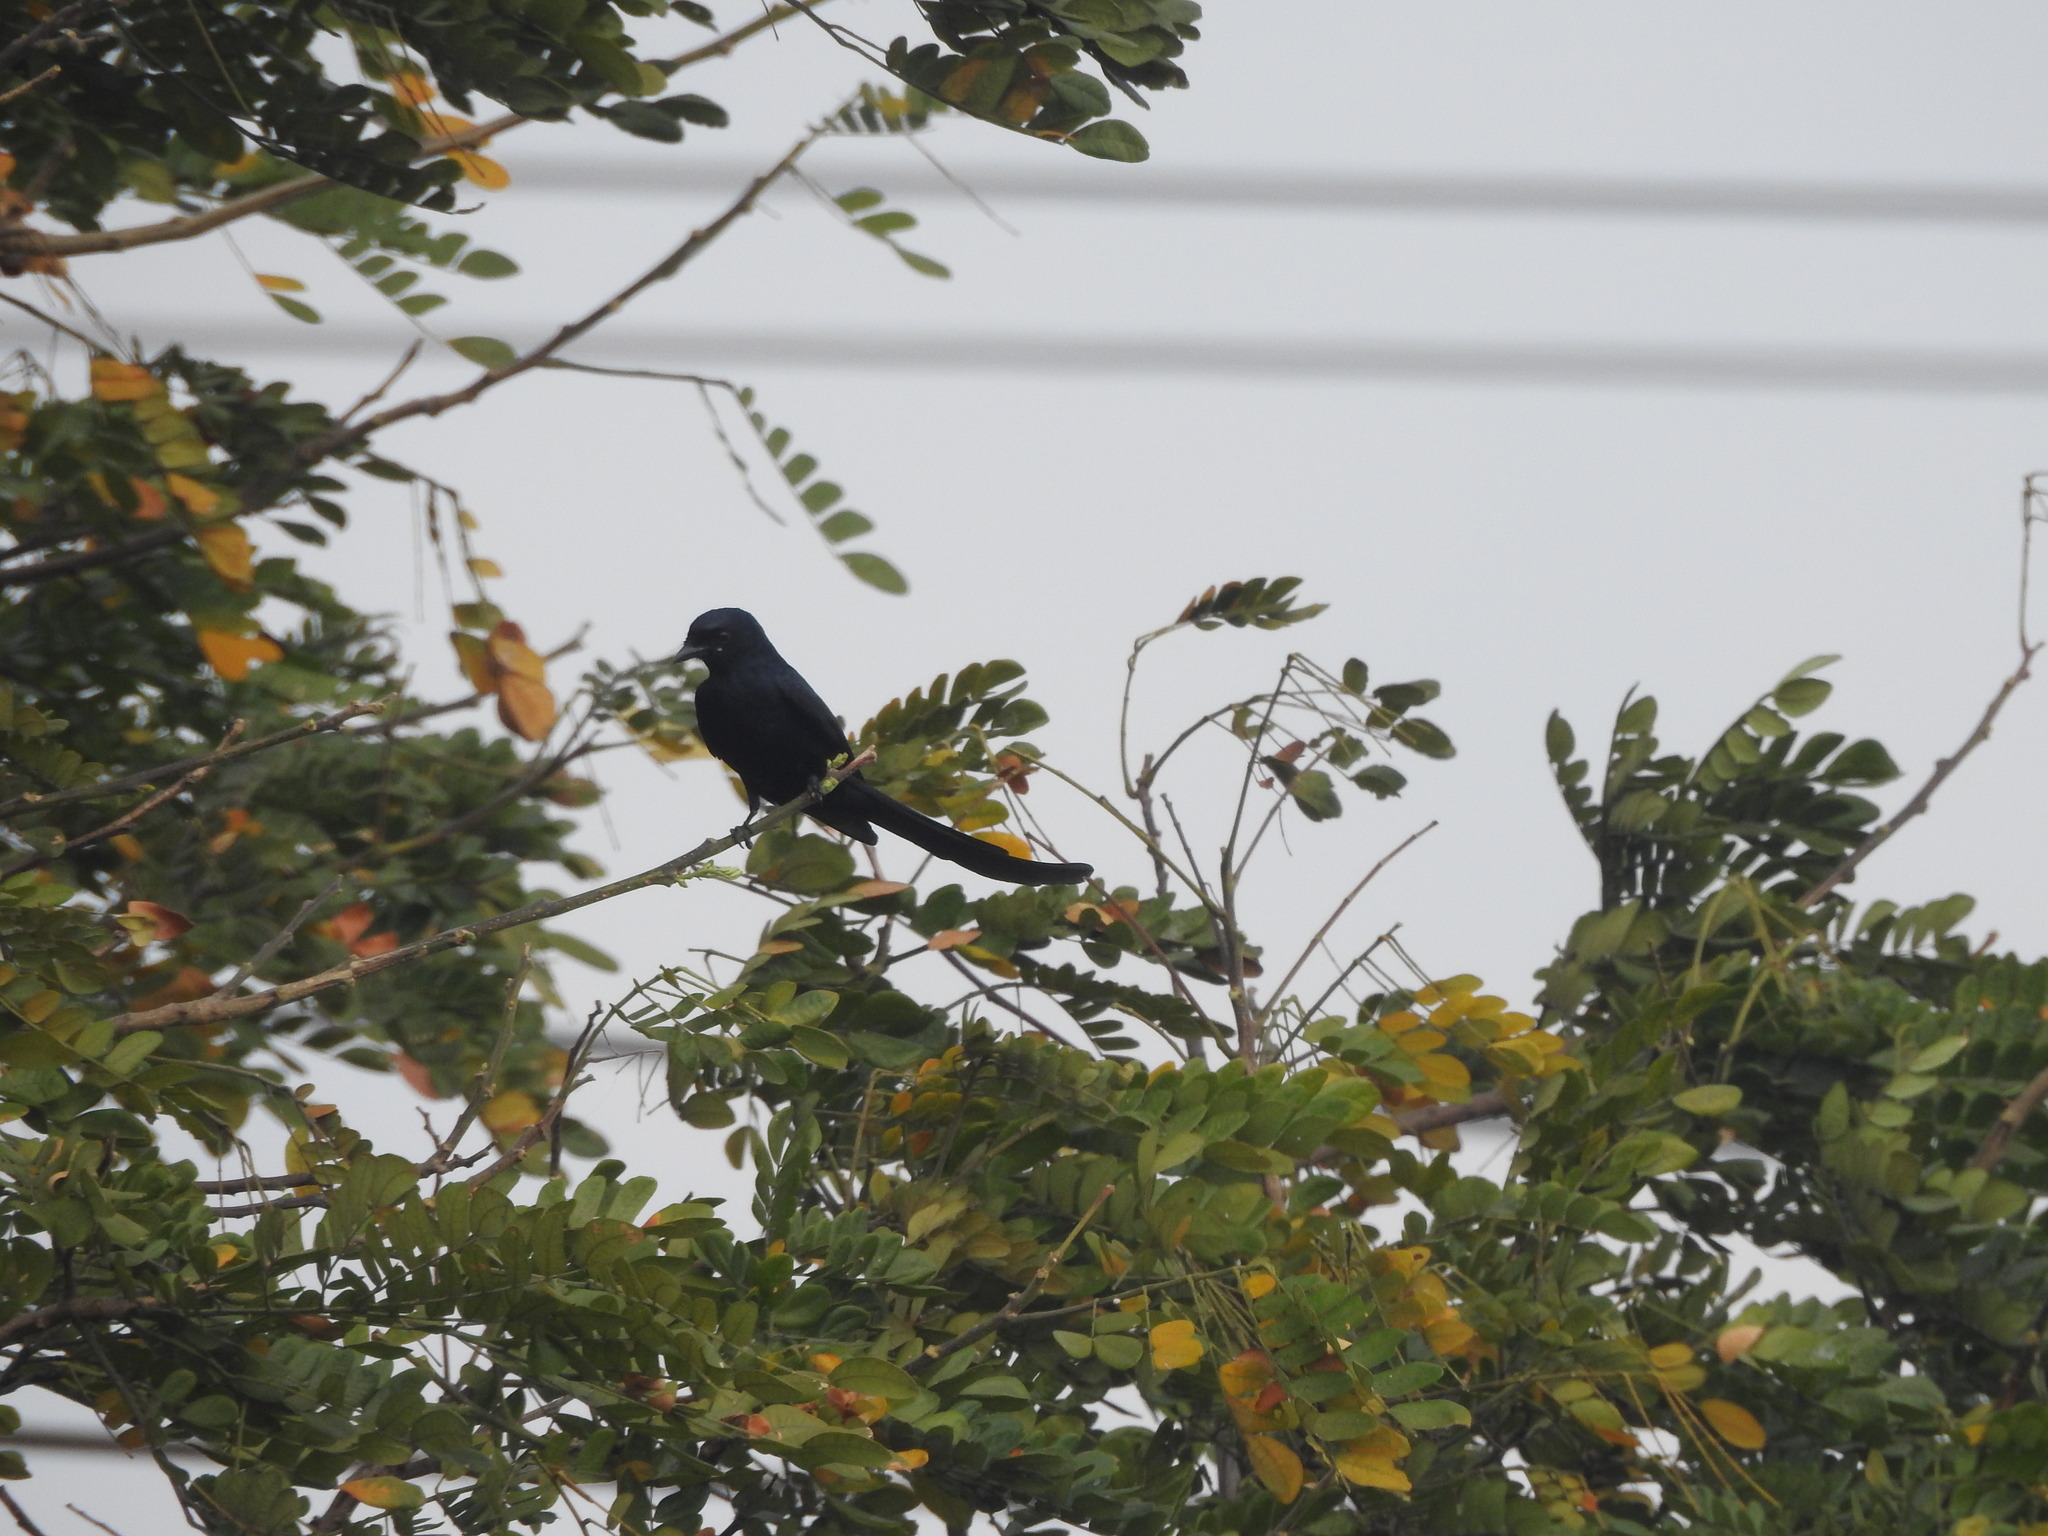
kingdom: Animalia
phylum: Chordata
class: Aves
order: Passeriformes
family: Dicruridae
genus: Dicrurus
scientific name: Dicrurus macrocercus
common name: Black drongo
